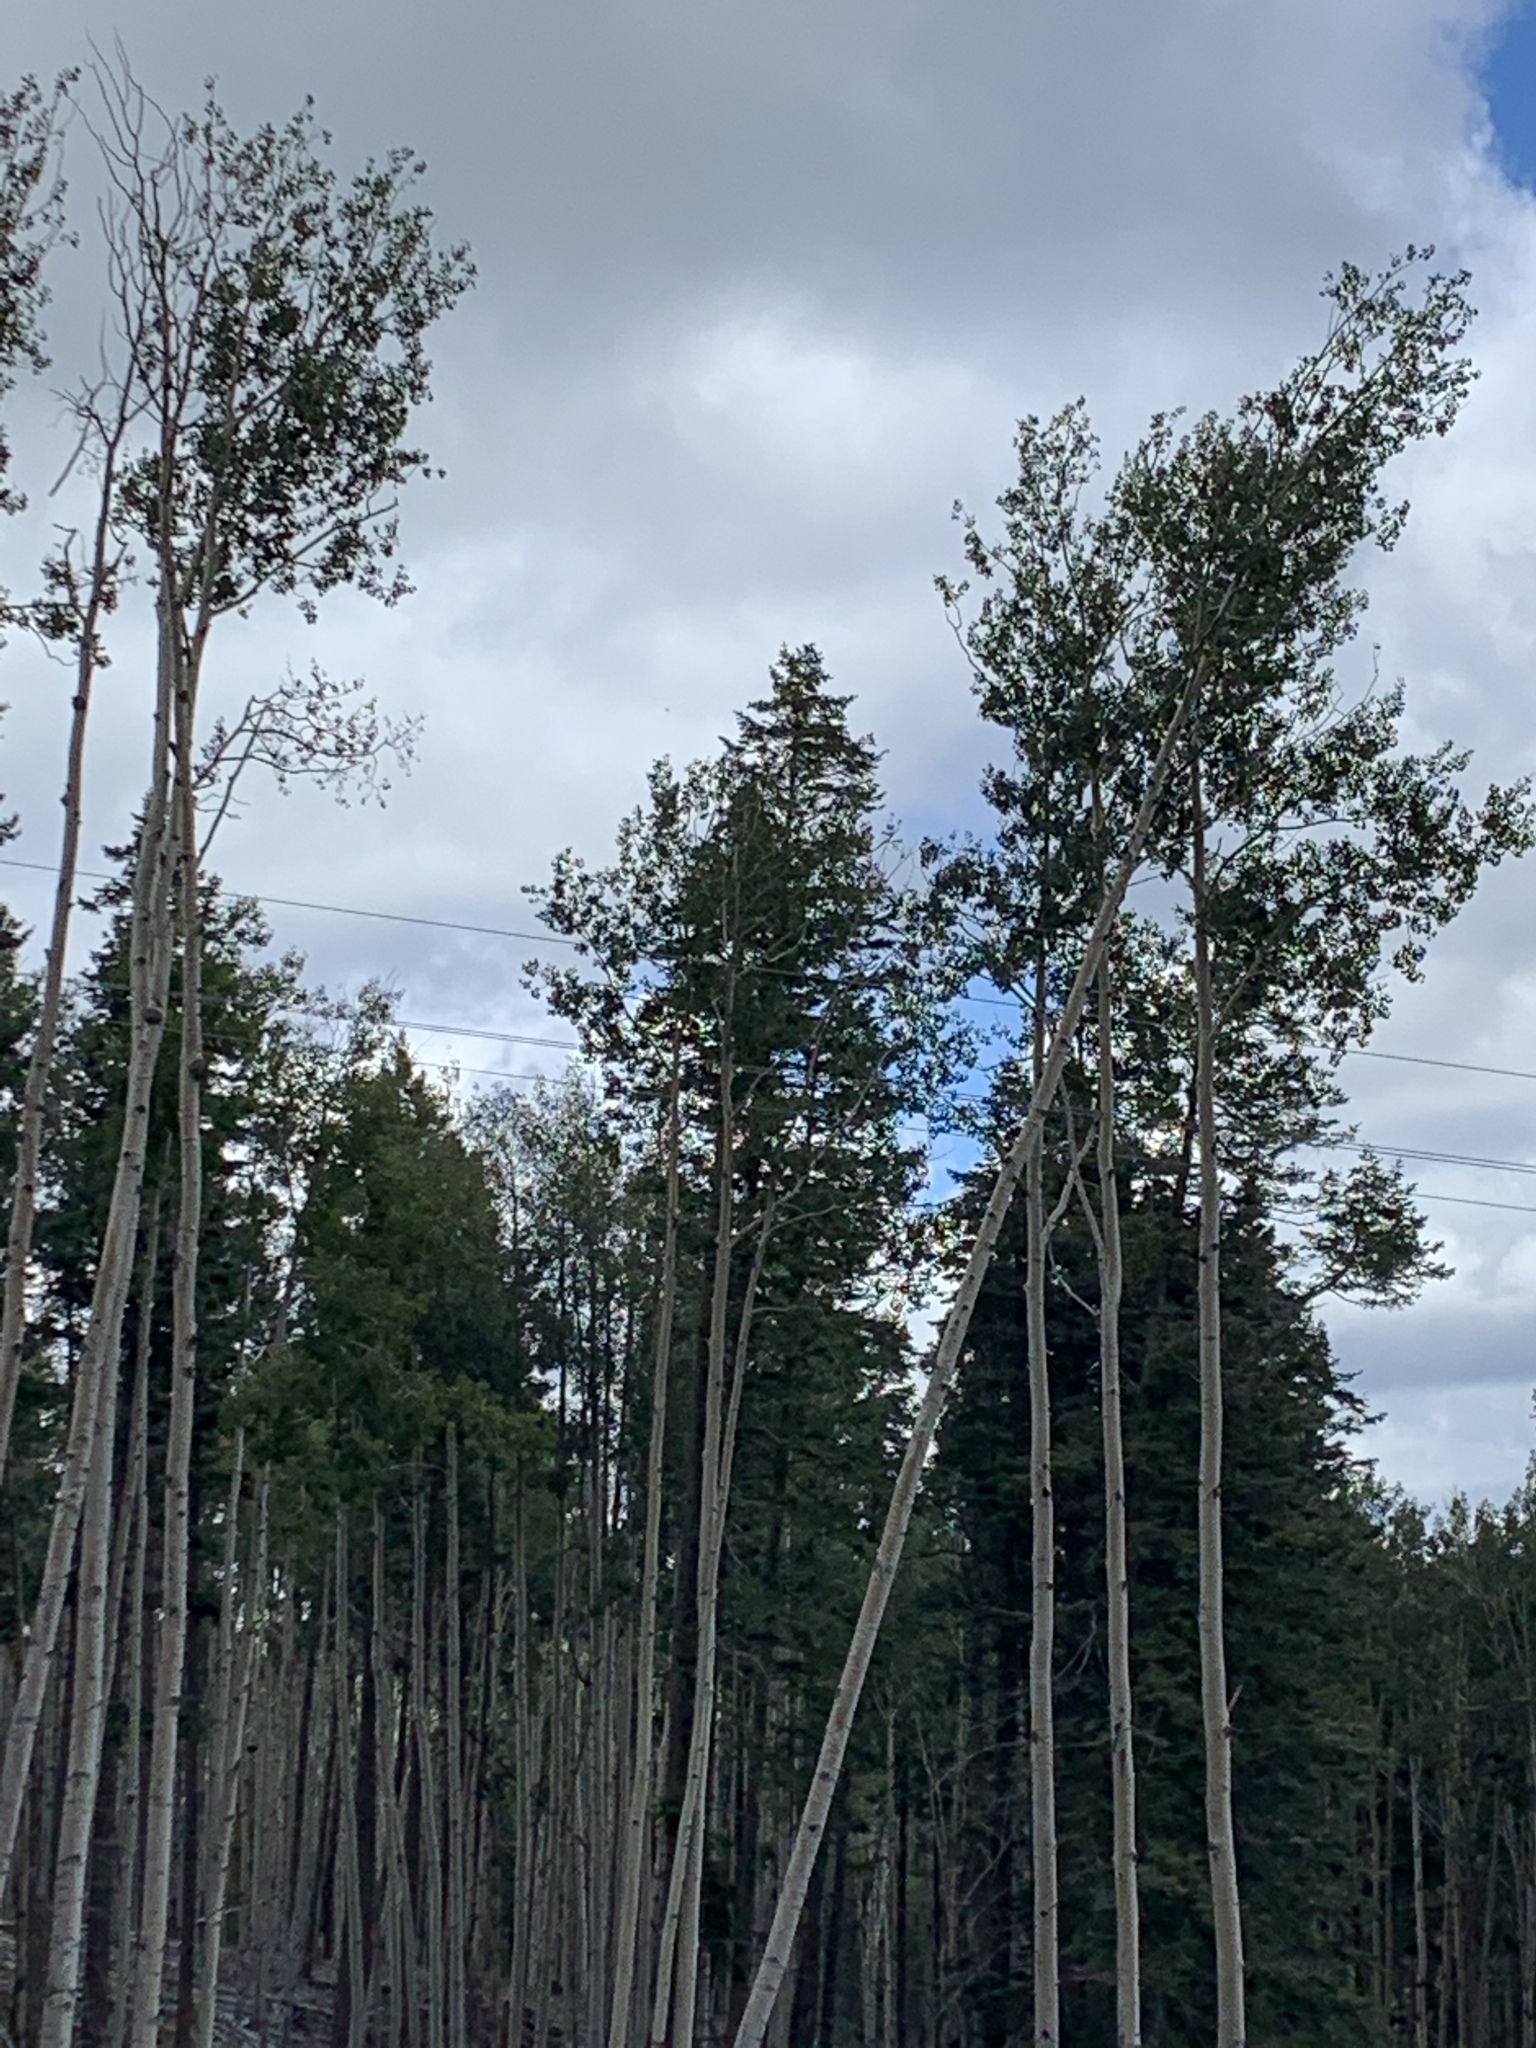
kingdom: Plantae
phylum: Tracheophyta
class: Magnoliopsida
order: Malpighiales
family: Salicaceae
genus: Populus
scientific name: Populus tremuloides
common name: Quaking aspen
